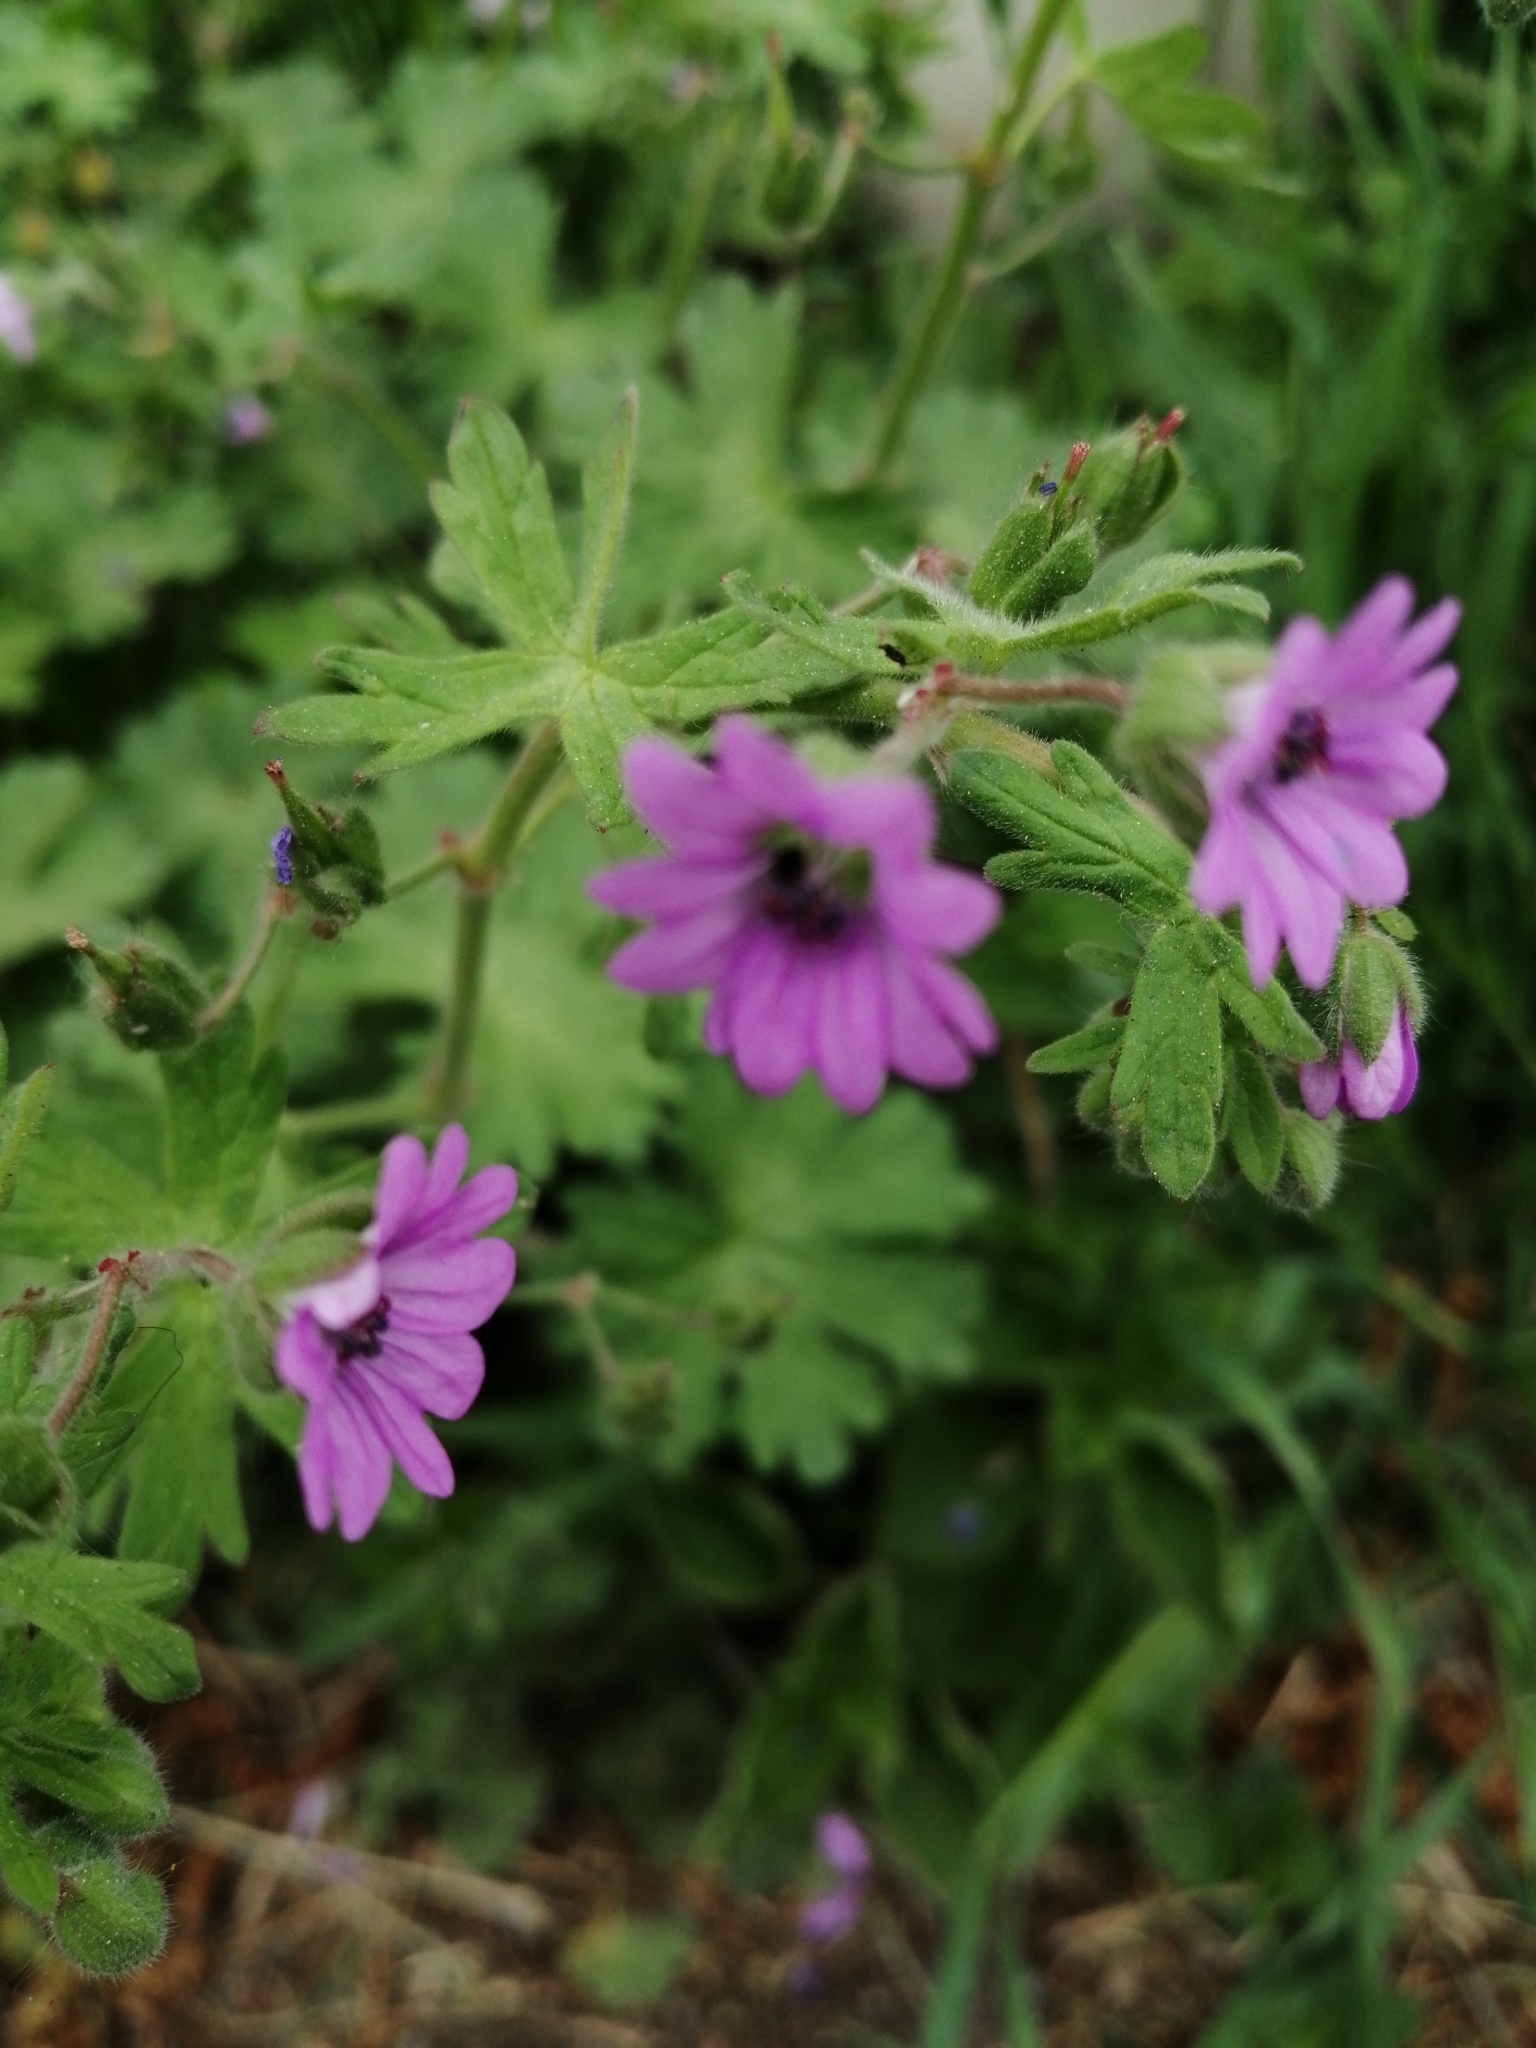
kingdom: Plantae
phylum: Tracheophyta
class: Magnoliopsida
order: Geraniales
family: Geraniaceae
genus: Geranium
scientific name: Geranium molle
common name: Dove's-foot crane's-bill
